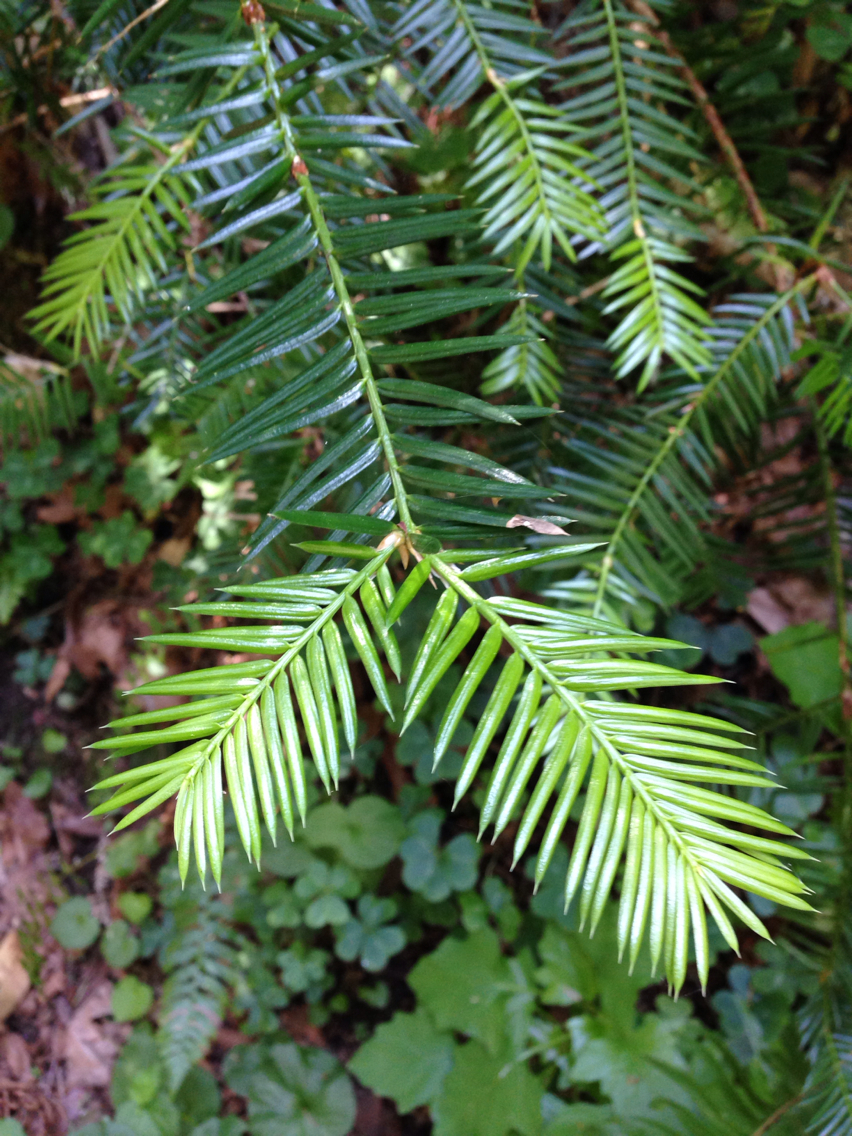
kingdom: Plantae
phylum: Tracheophyta
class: Pinopsida
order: Pinales
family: Taxaceae
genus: Torreya
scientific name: Torreya californica
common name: California torreya
